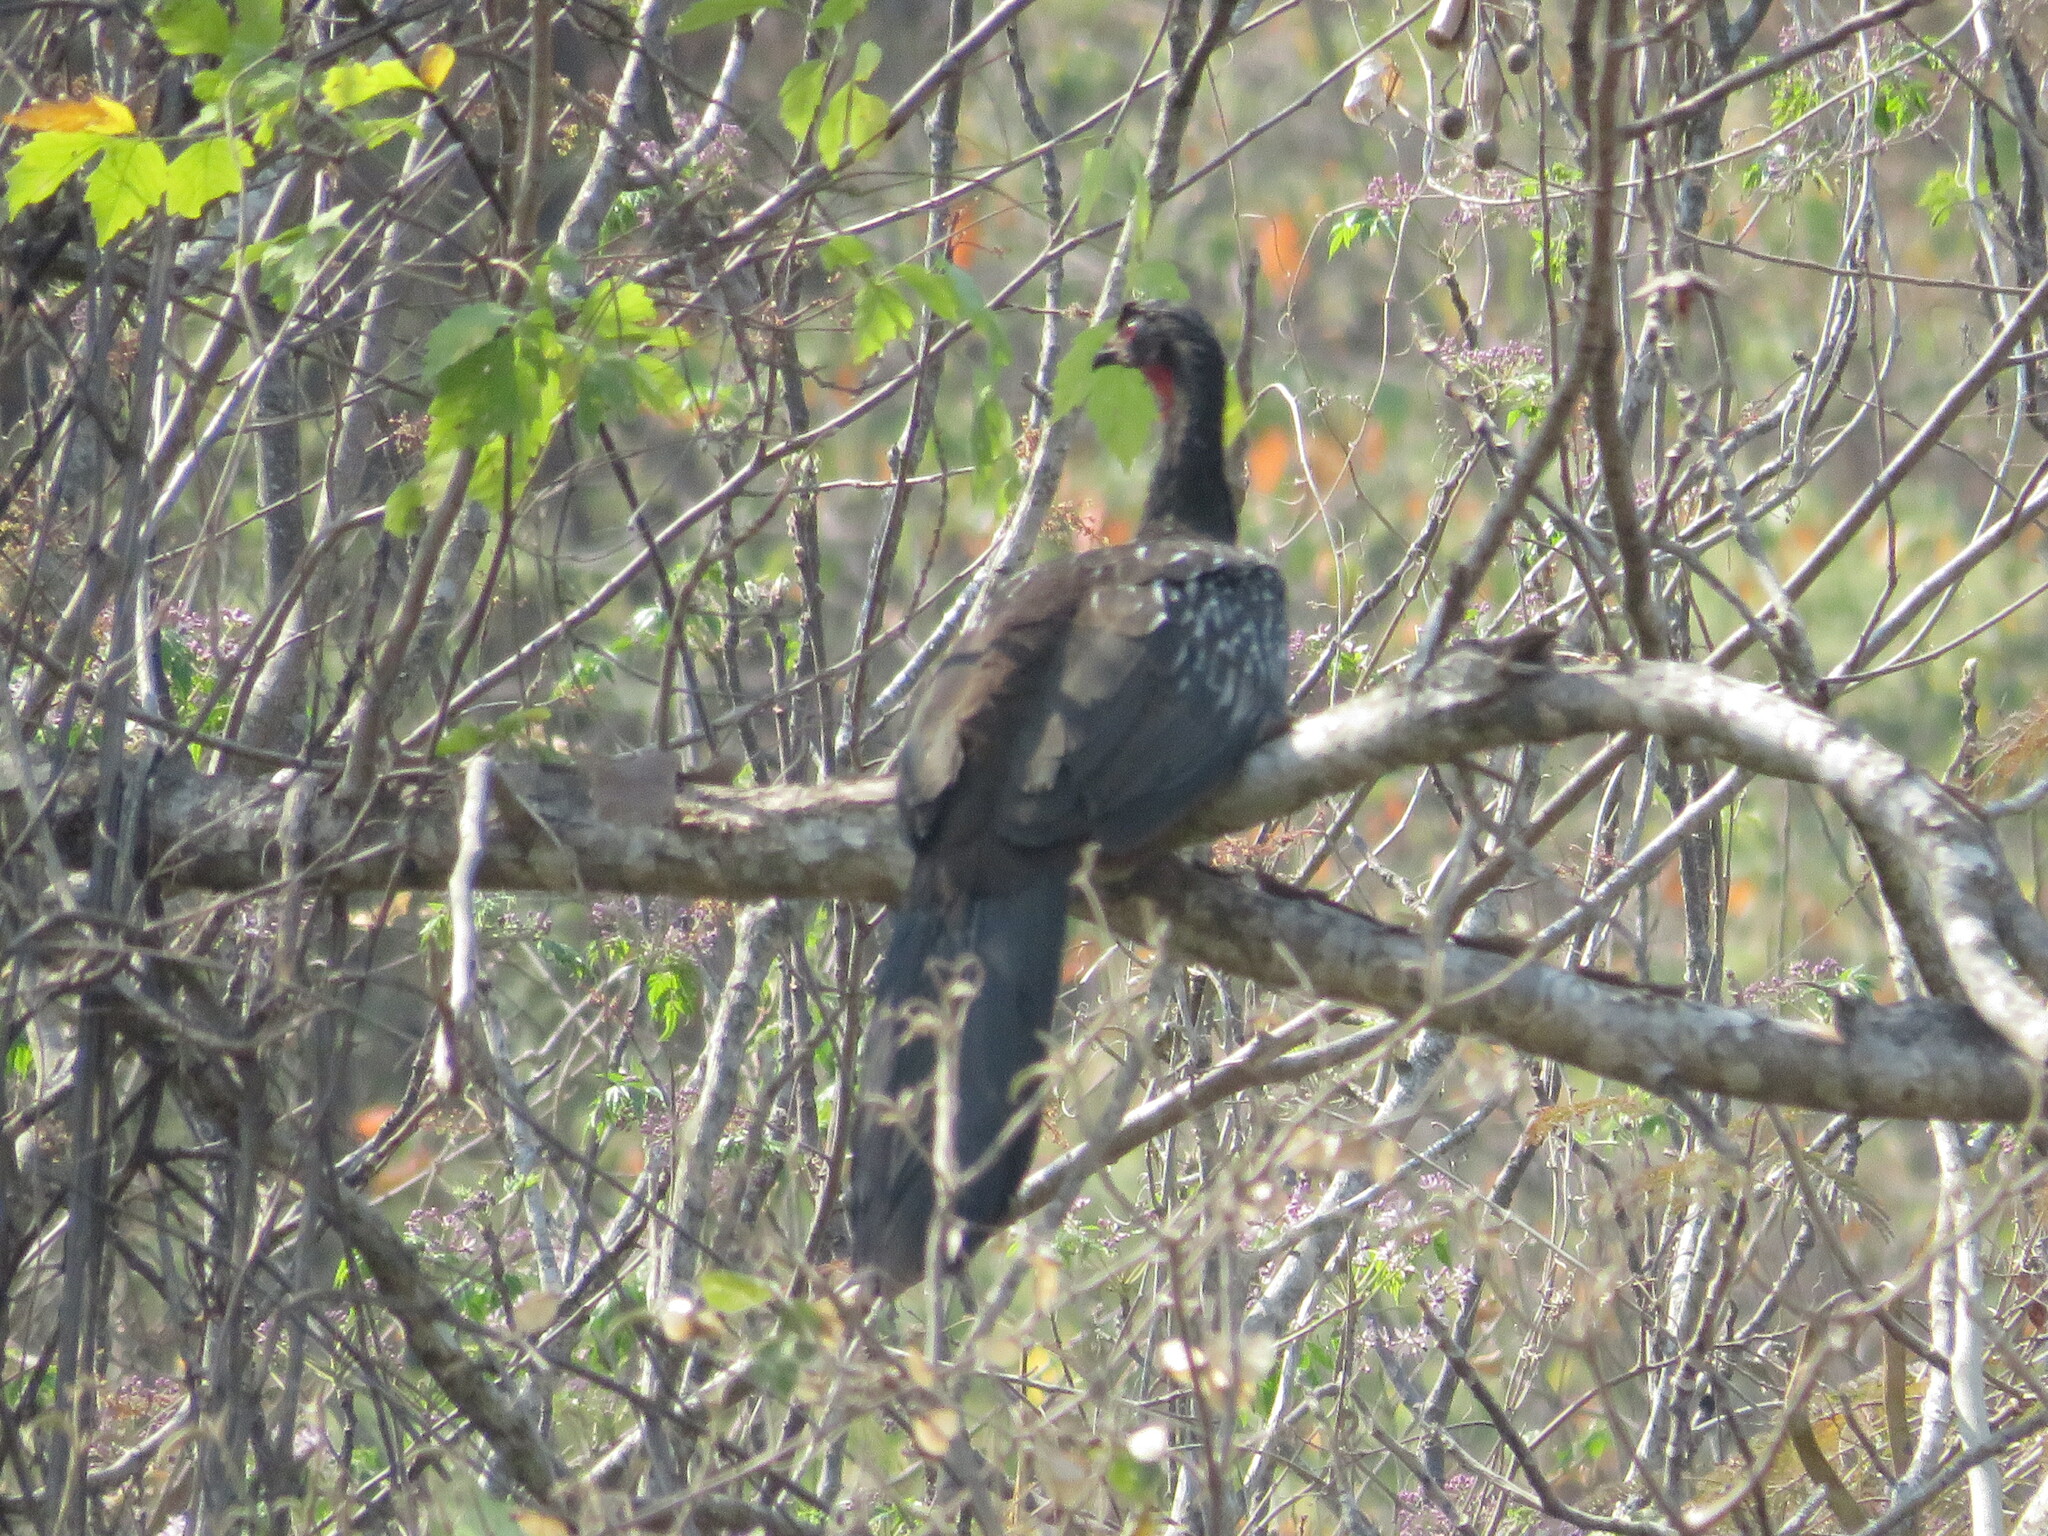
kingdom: Animalia
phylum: Chordata
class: Aves
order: Galliformes
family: Cracidae
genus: Penelope
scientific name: Penelope bridgesi
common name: Yungas guan
